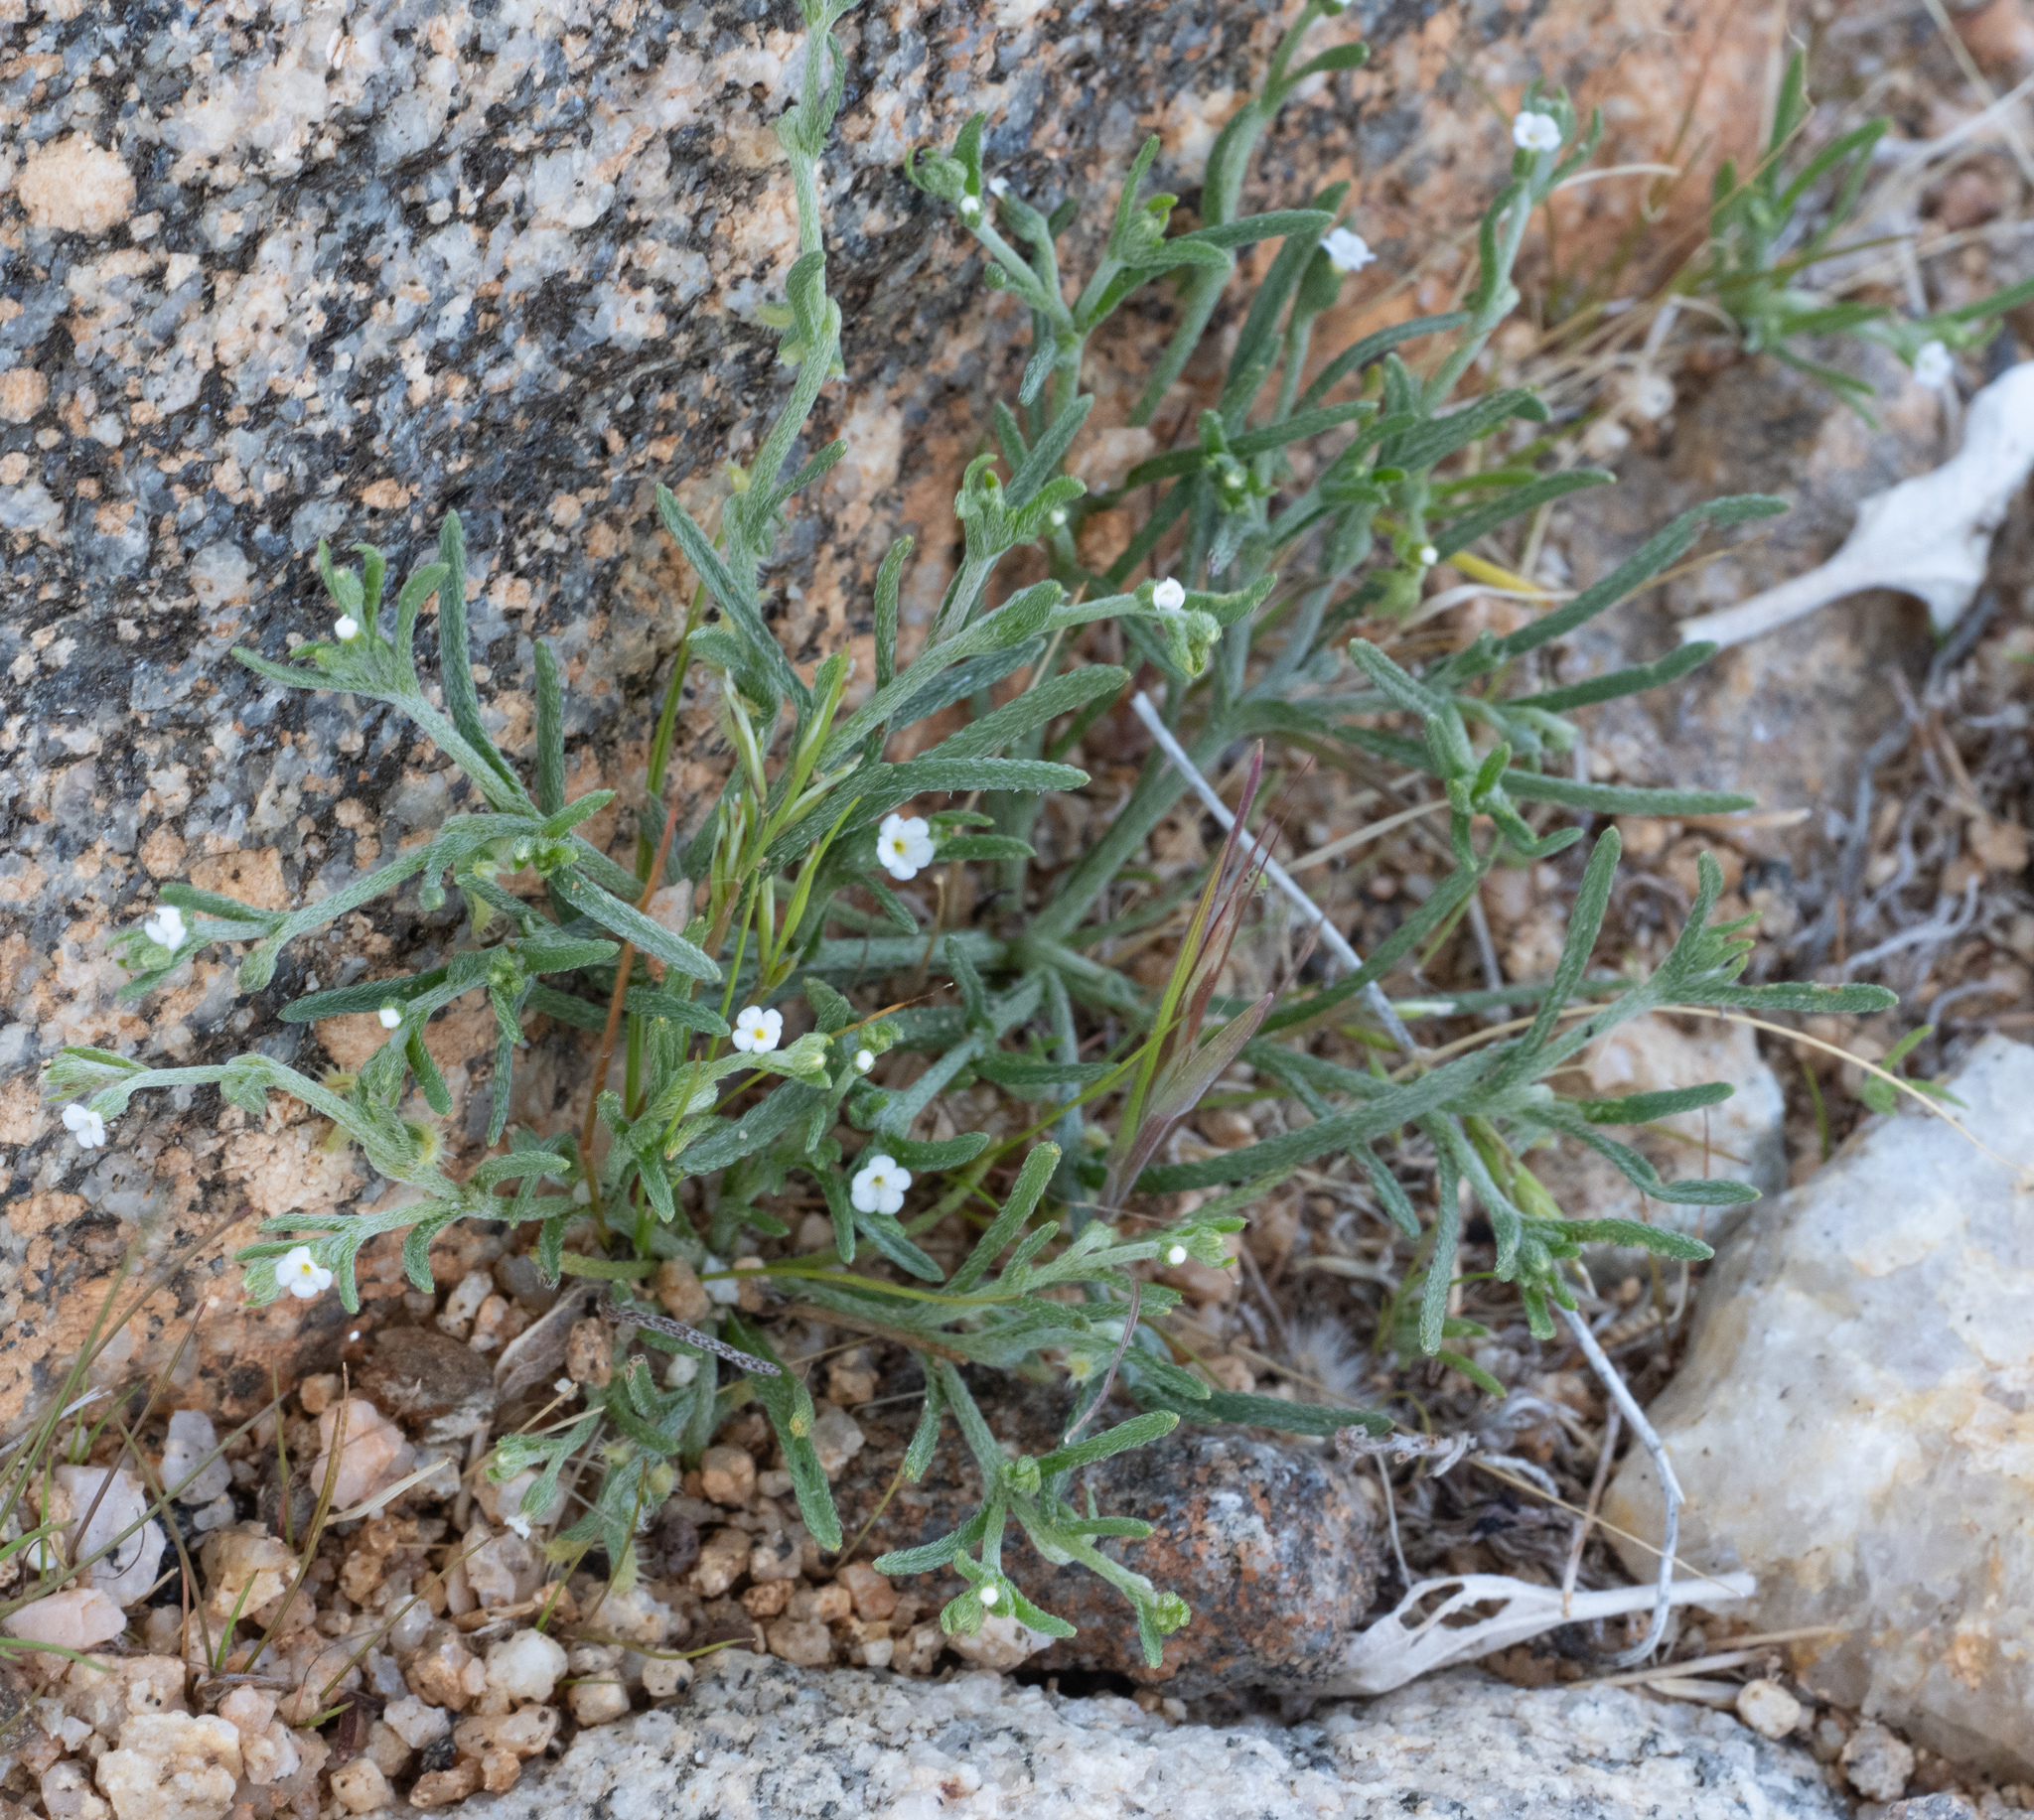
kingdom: Plantae
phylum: Tracheophyta
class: Magnoliopsida
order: Boraginales
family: Boraginaceae
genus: Pectocarya
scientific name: Pectocarya recurvata
